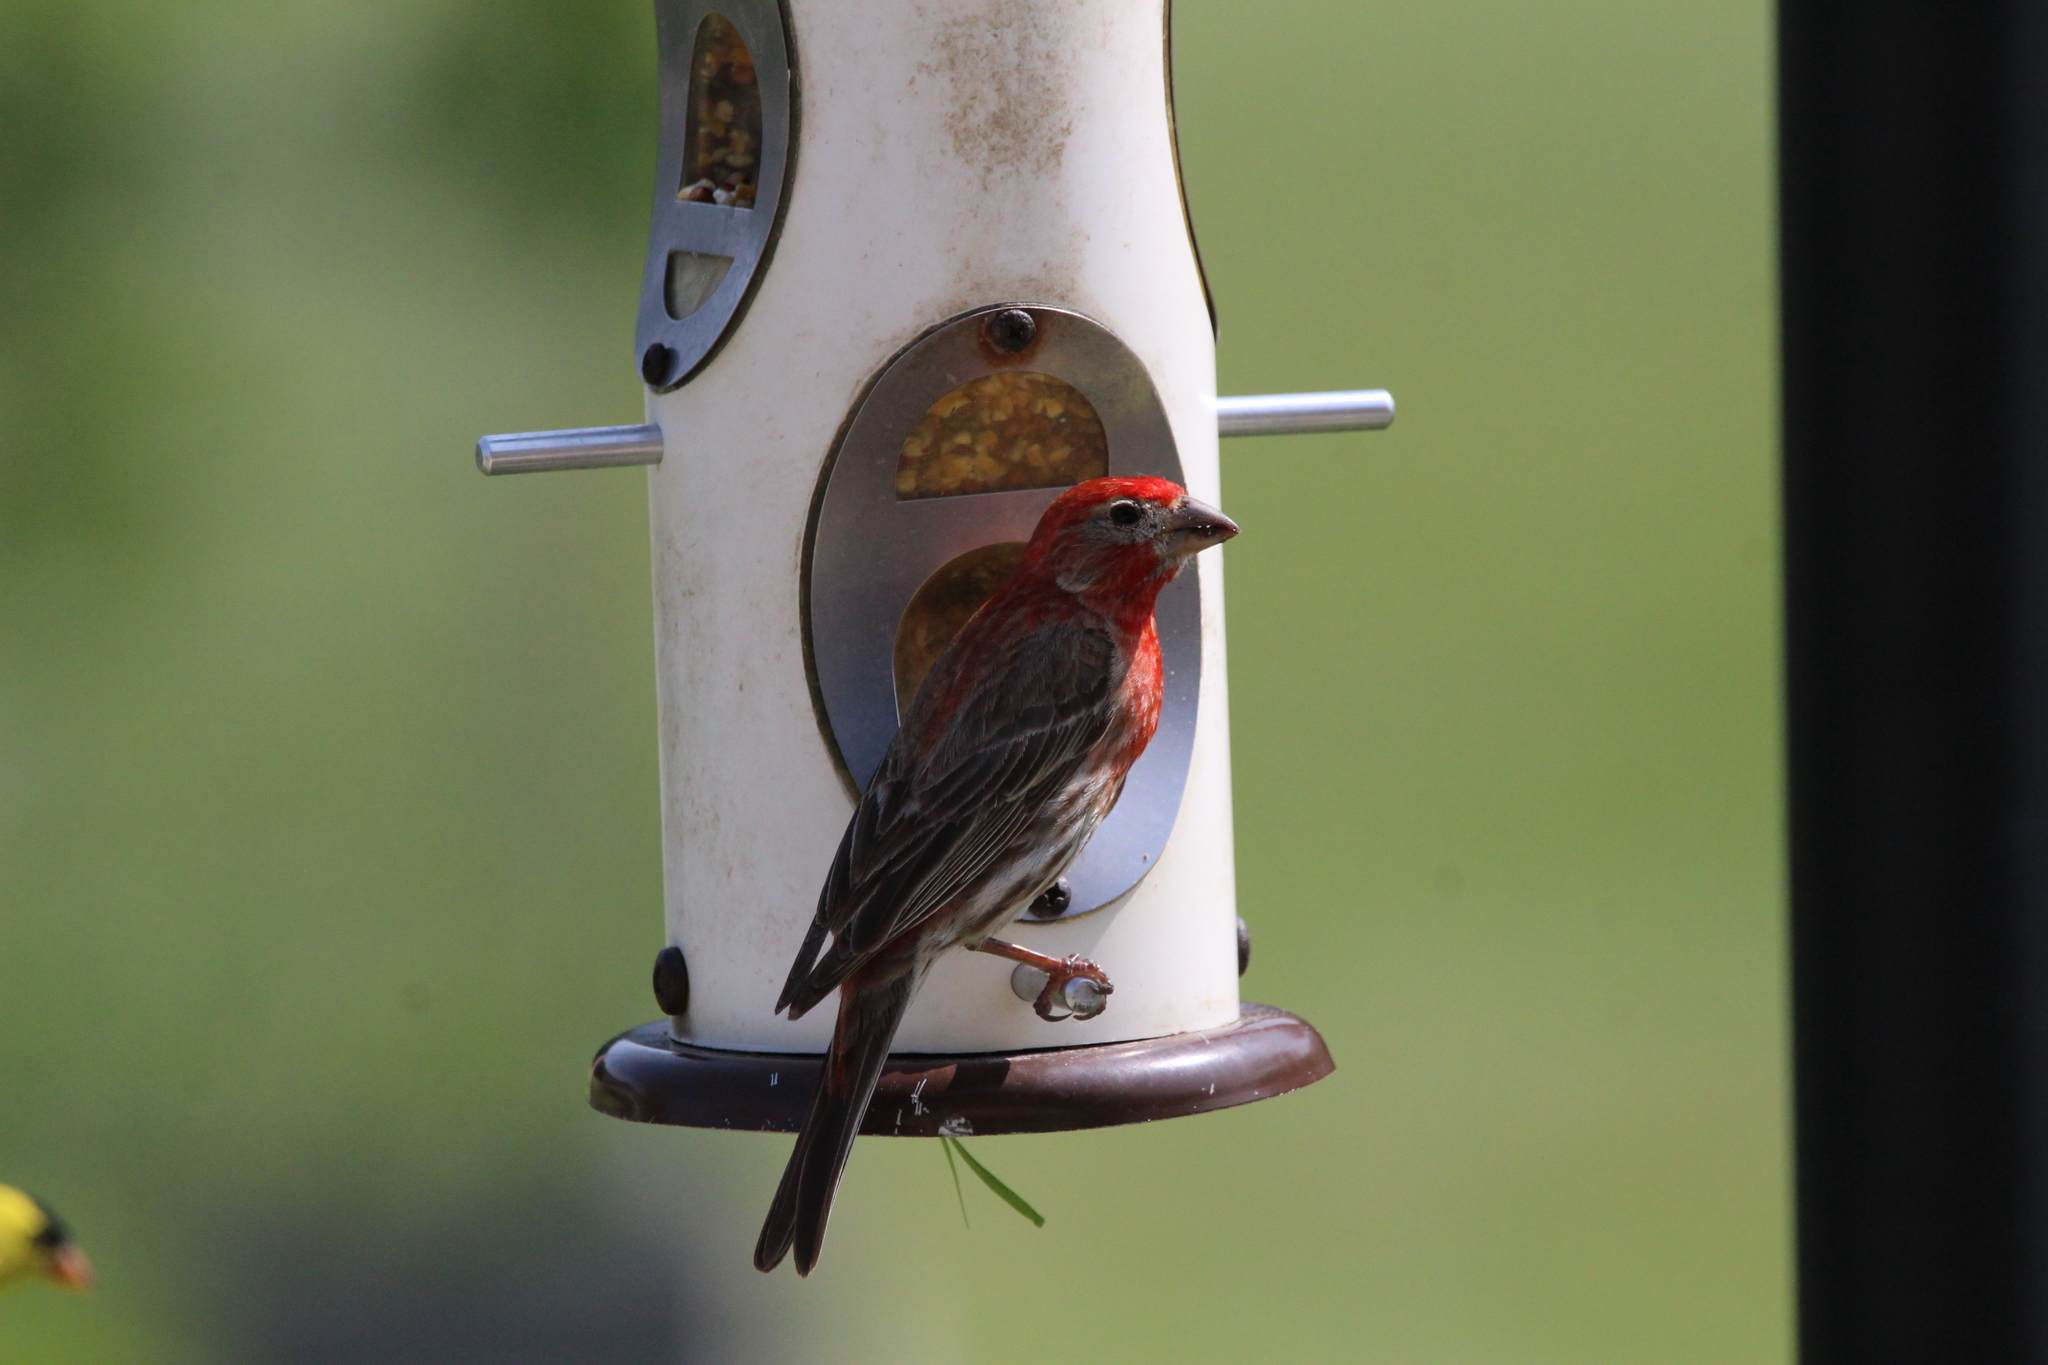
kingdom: Animalia
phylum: Chordata
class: Aves
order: Passeriformes
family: Fringillidae
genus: Haemorhous
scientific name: Haemorhous mexicanus
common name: House finch
